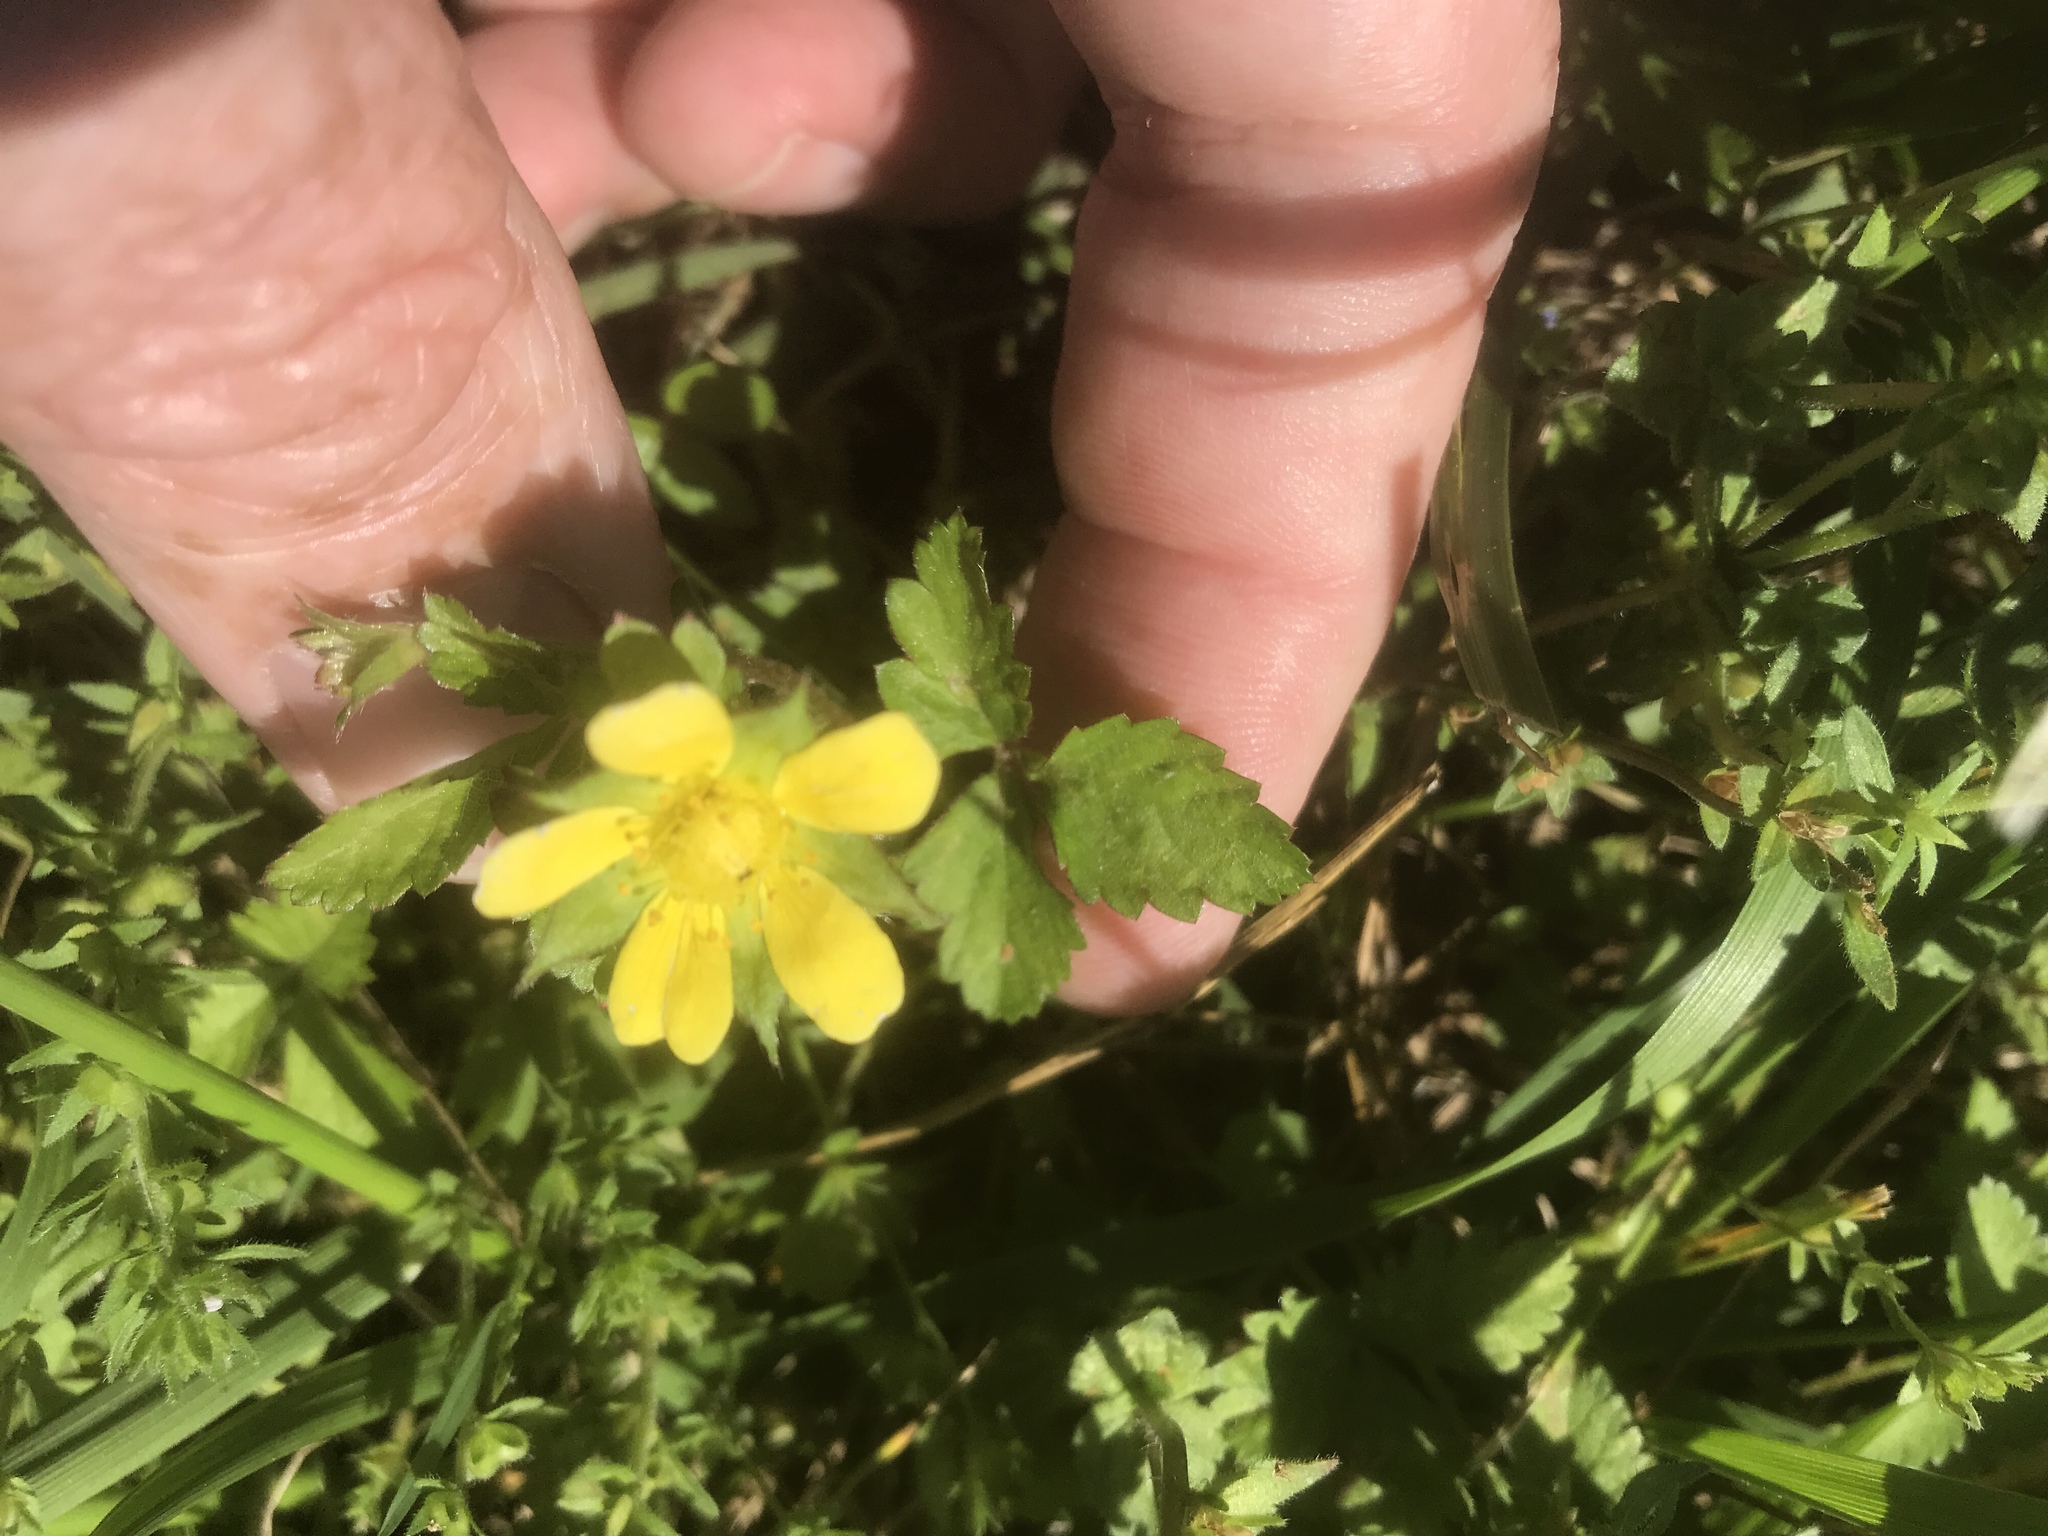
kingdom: Plantae
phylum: Tracheophyta
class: Magnoliopsida
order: Rosales
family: Rosaceae
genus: Potentilla
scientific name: Potentilla indica
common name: Yellow-flowered strawberry
